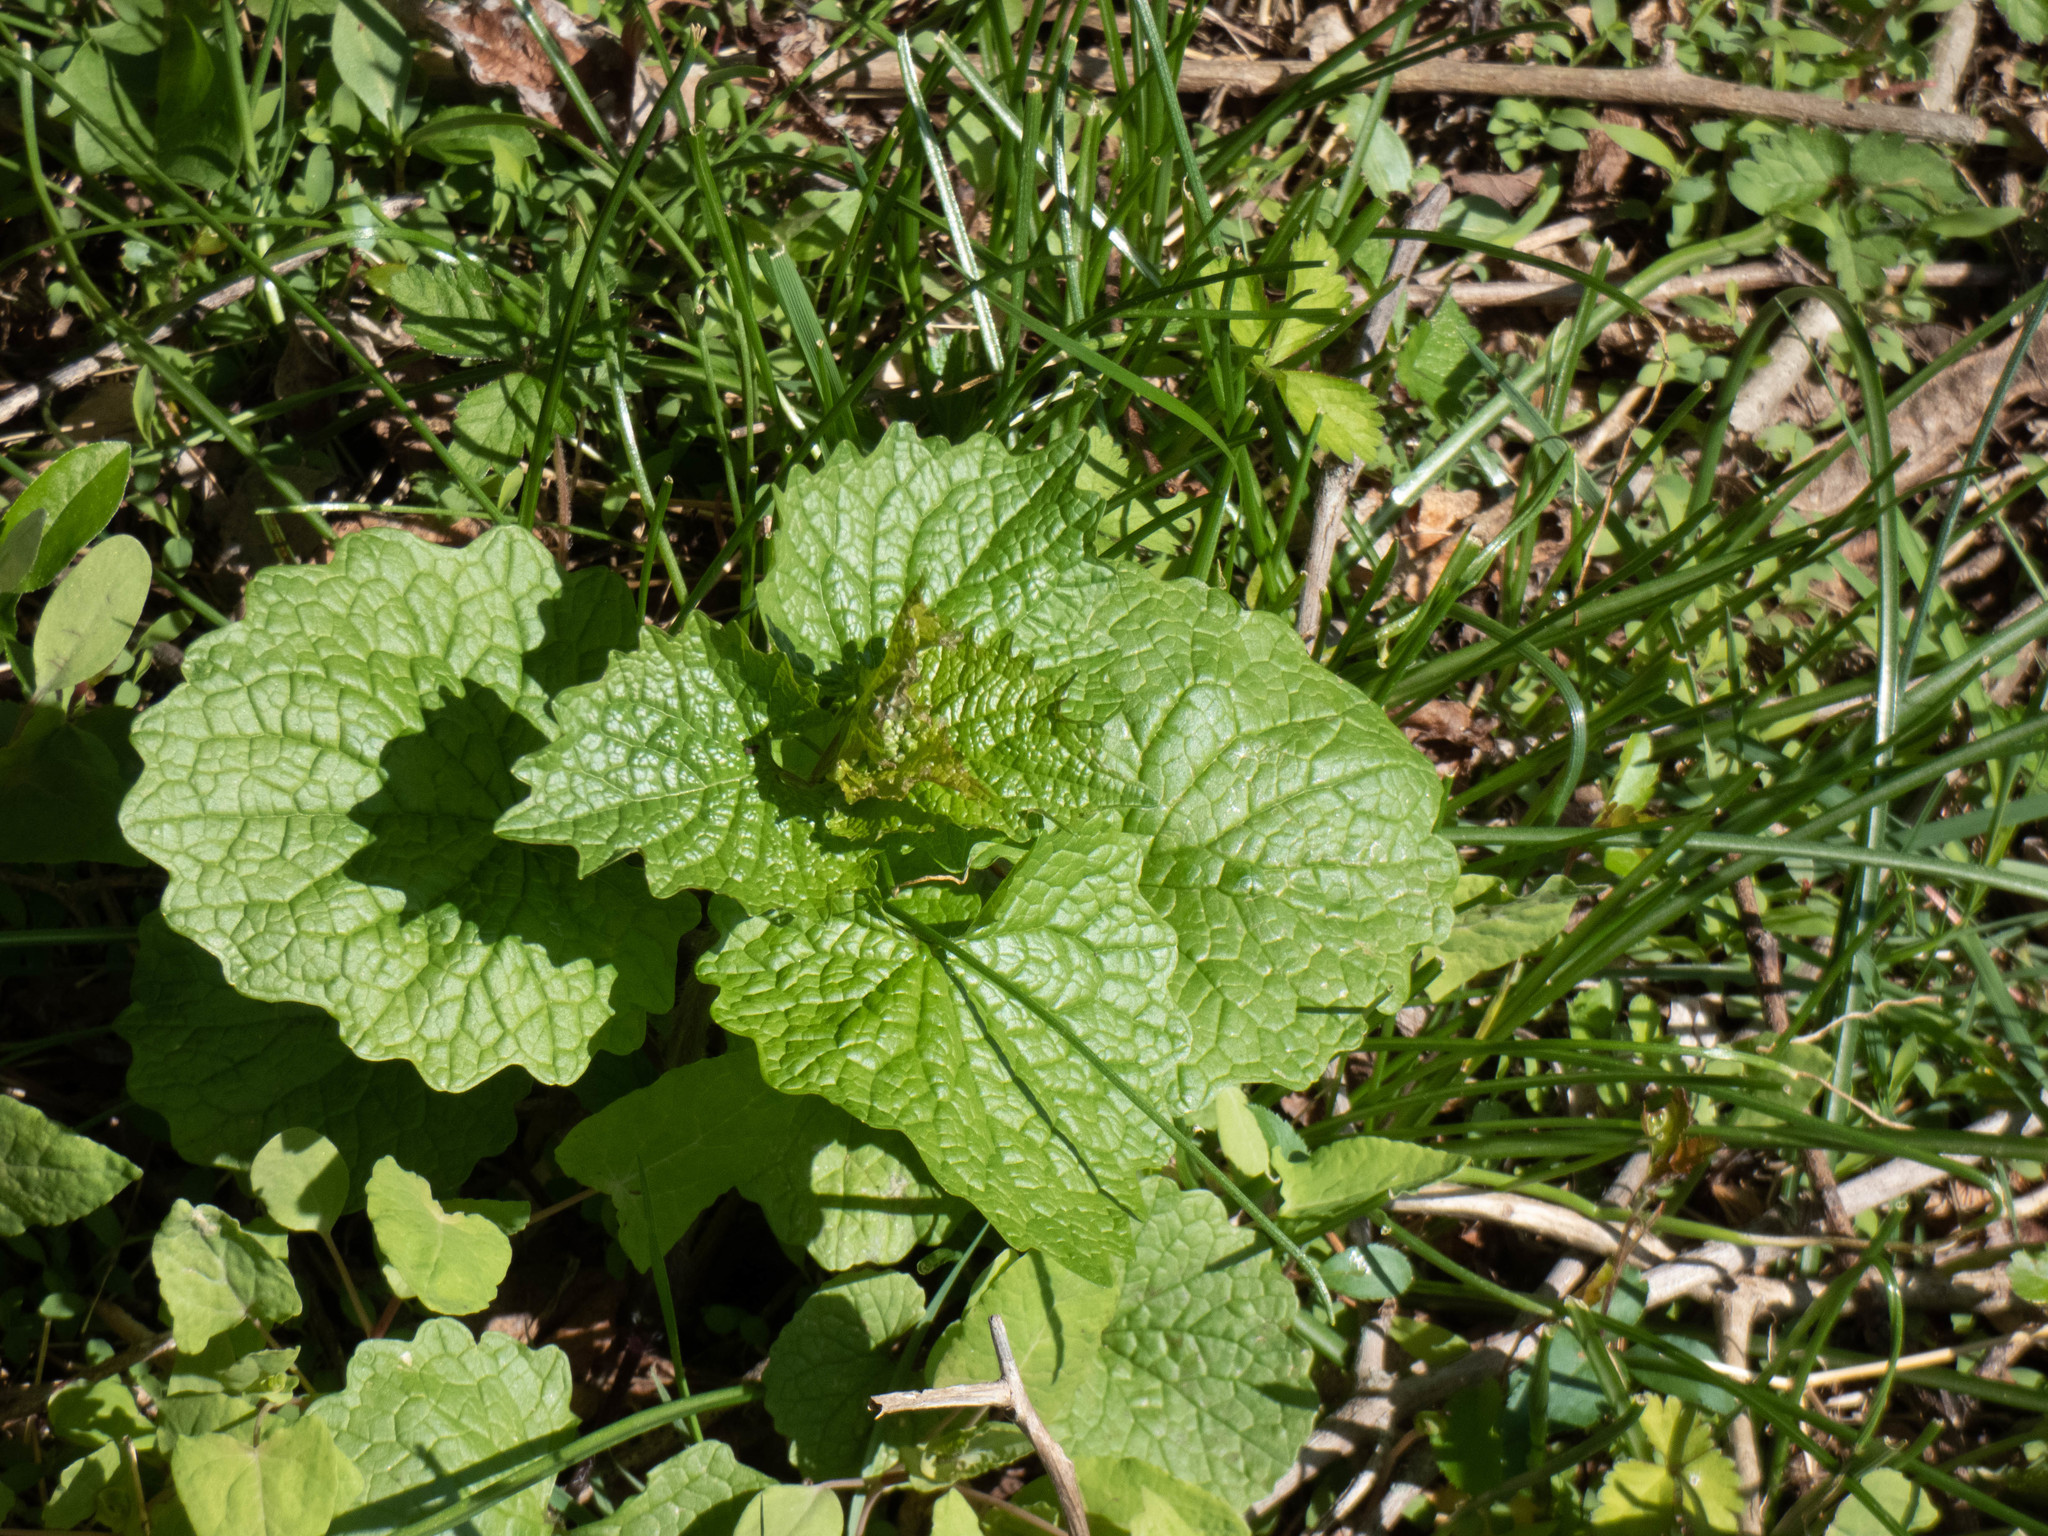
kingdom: Plantae
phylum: Tracheophyta
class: Magnoliopsida
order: Brassicales
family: Brassicaceae
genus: Alliaria
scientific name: Alliaria petiolata
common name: Garlic mustard
